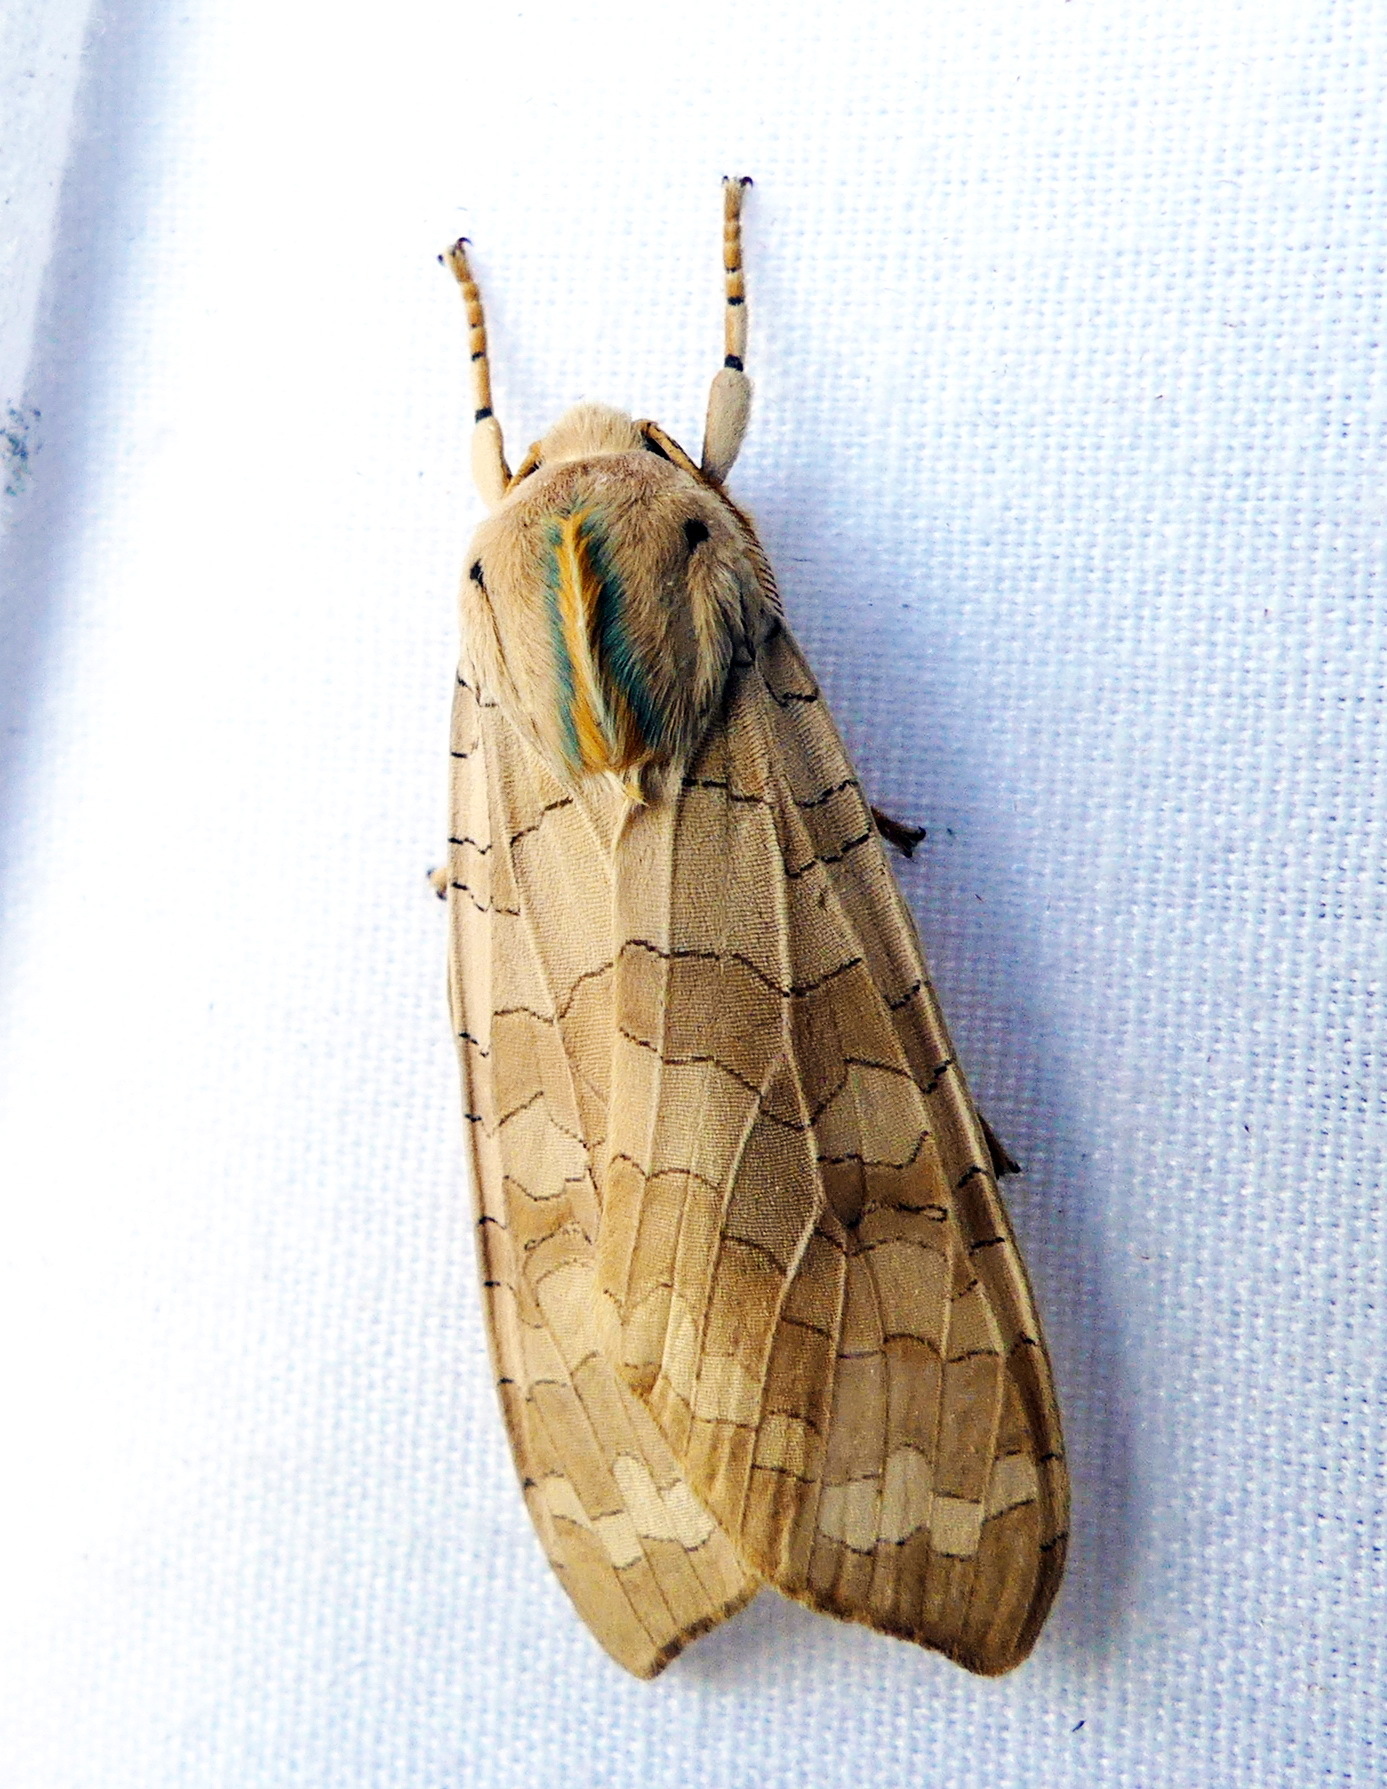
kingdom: Animalia
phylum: Arthropoda
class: Insecta
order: Lepidoptera
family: Erebidae
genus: Halysidota
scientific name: Halysidota tessellaris
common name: Banded tussock moth
